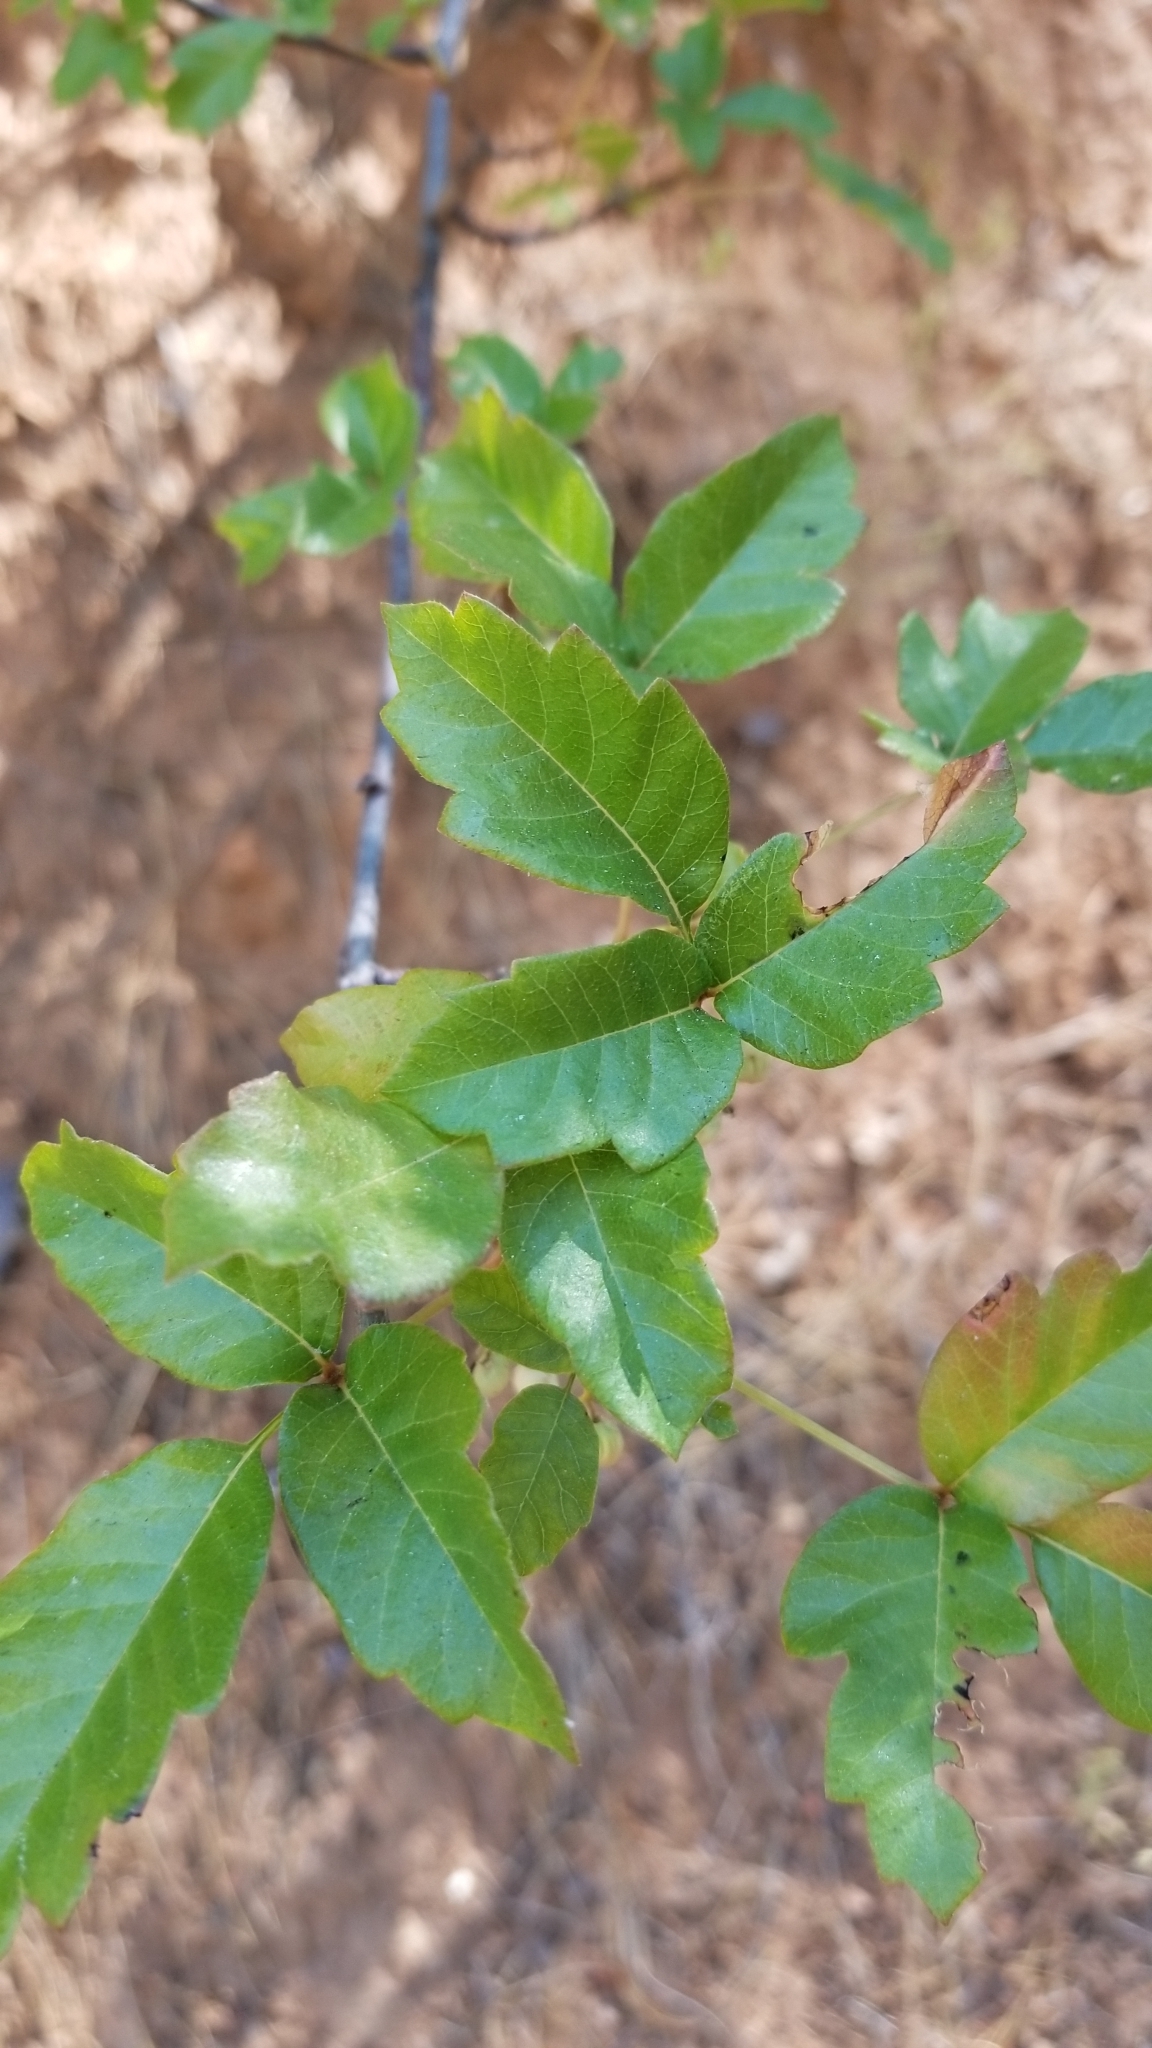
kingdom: Plantae
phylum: Tracheophyta
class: Magnoliopsida
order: Sapindales
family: Anacardiaceae
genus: Toxicodendron
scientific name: Toxicodendron diversilobum
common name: Pacific poison-oak
